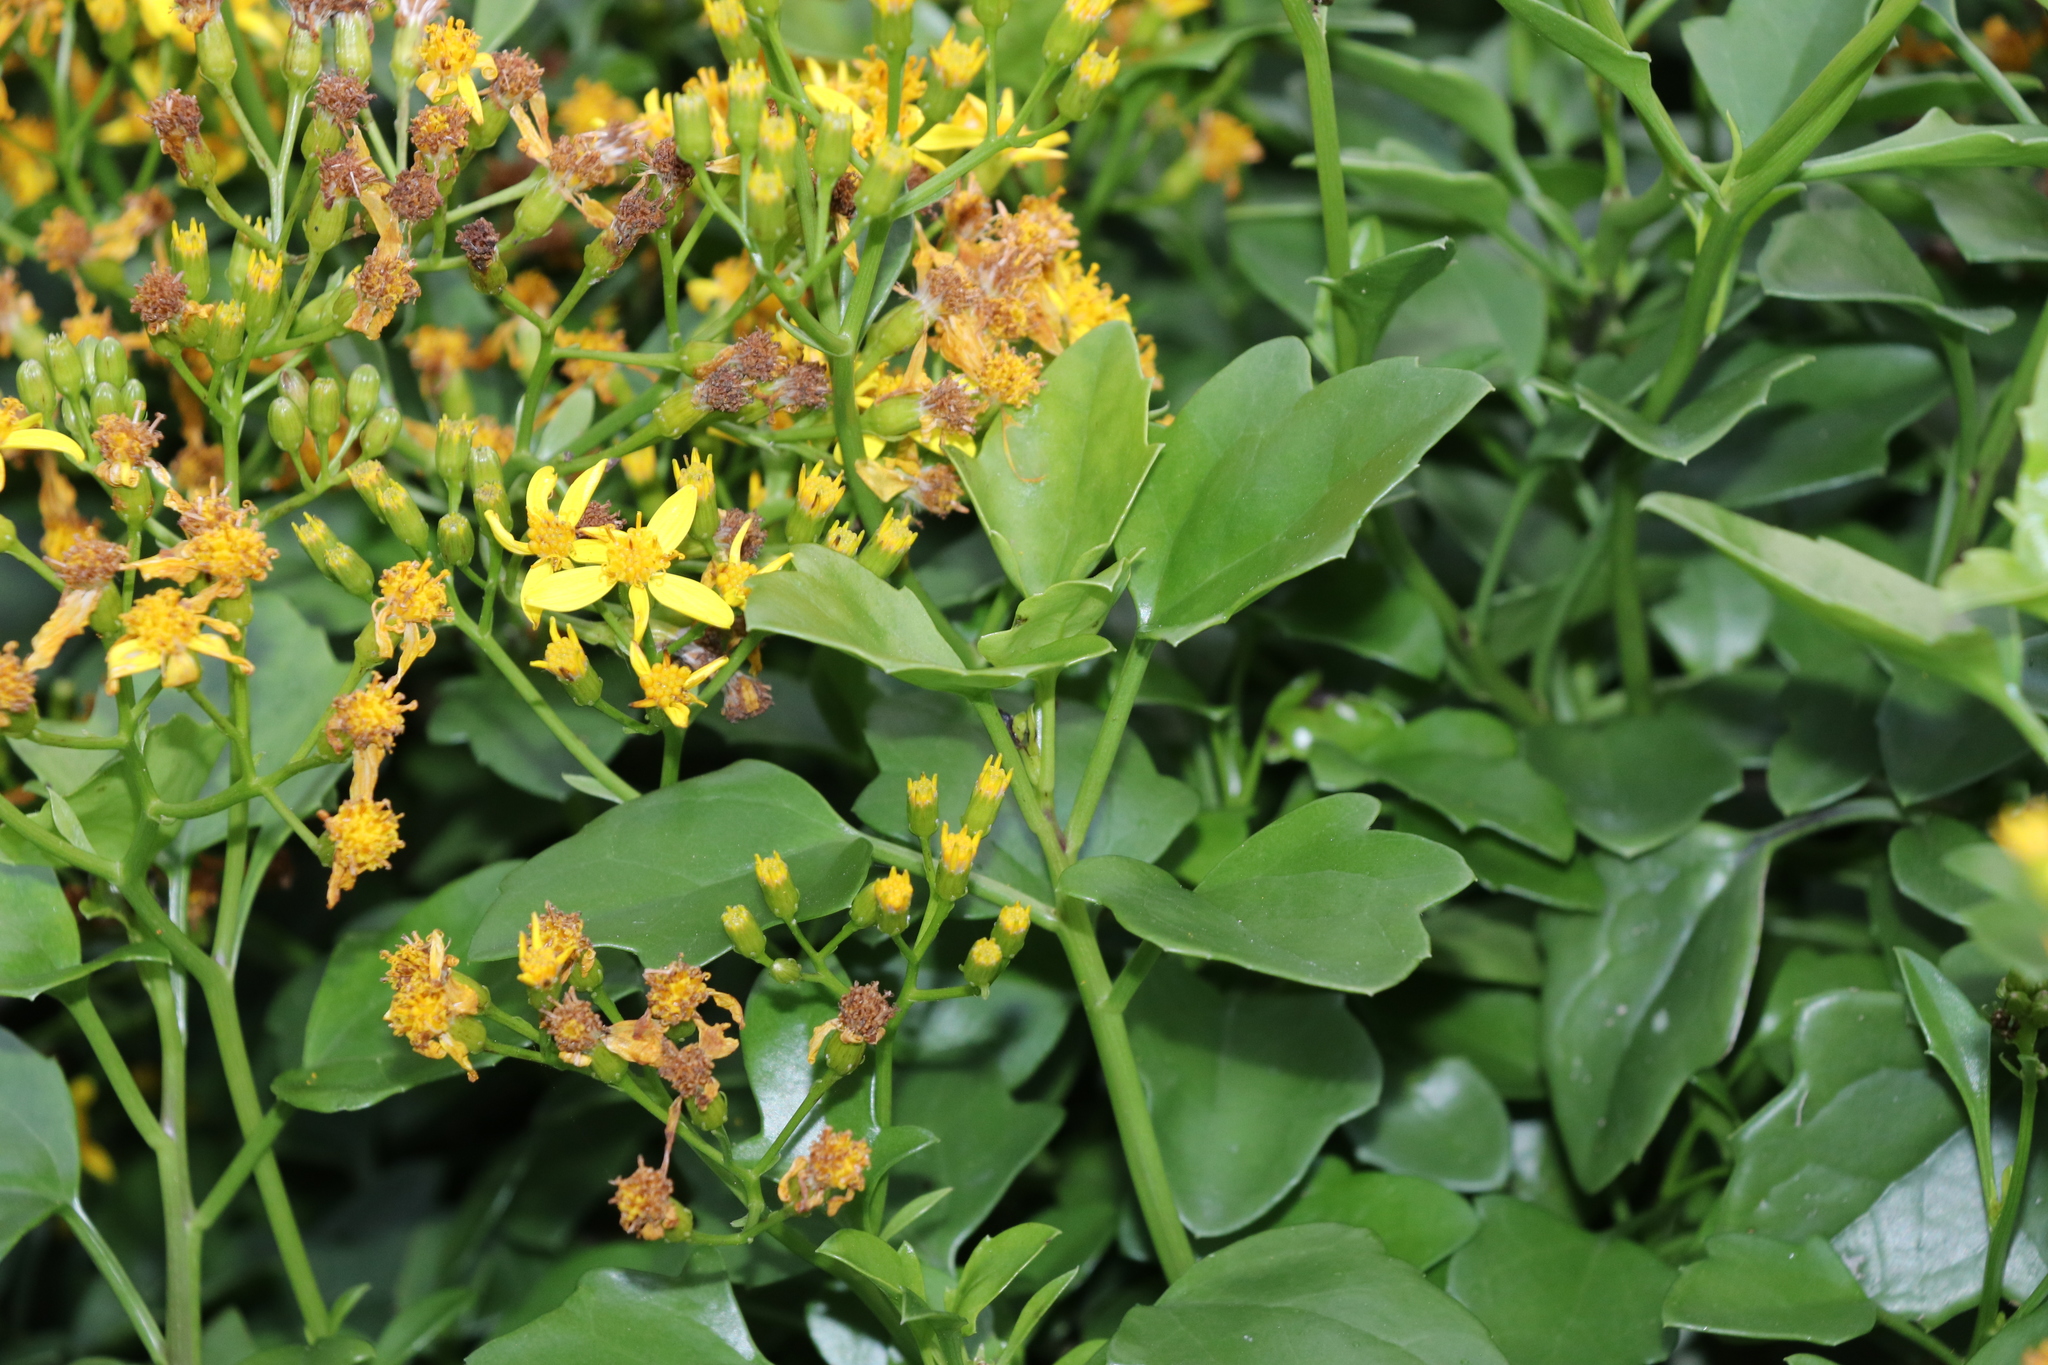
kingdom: Plantae
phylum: Tracheophyta
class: Magnoliopsida
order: Asterales
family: Asteraceae
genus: Senecio
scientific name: Senecio angulatus
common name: Climbing groundsel
